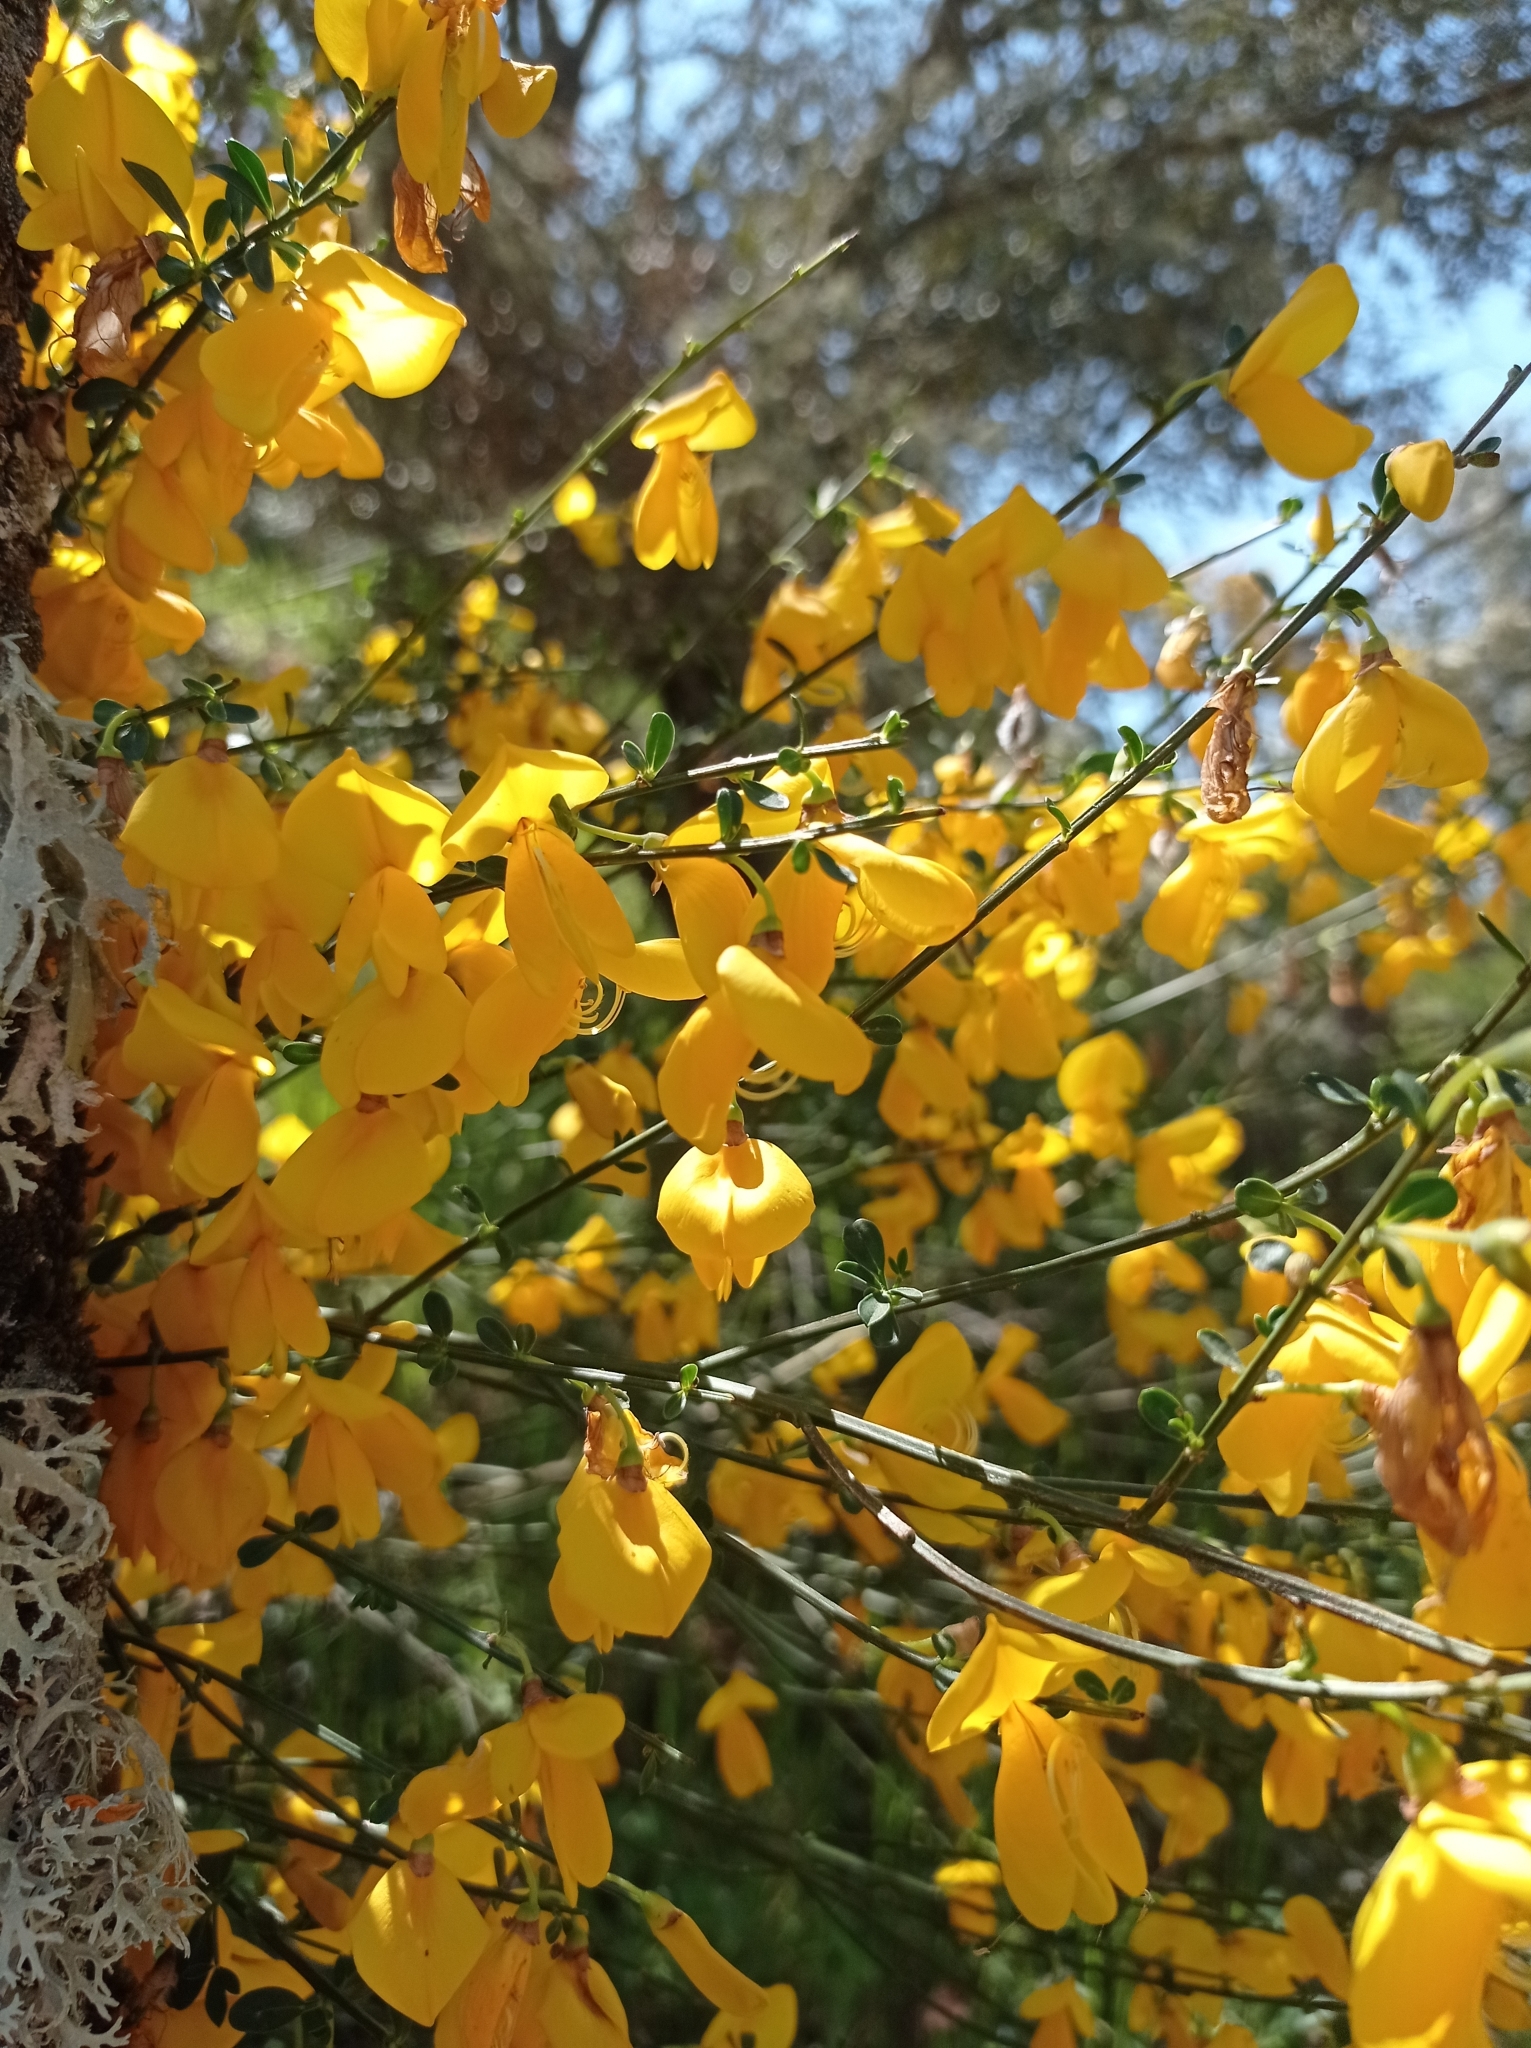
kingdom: Plantae
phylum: Tracheophyta
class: Magnoliopsida
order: Fabales
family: Fabaceae
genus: Cytisus
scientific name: Cytisus scoparius
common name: Scotch broom
